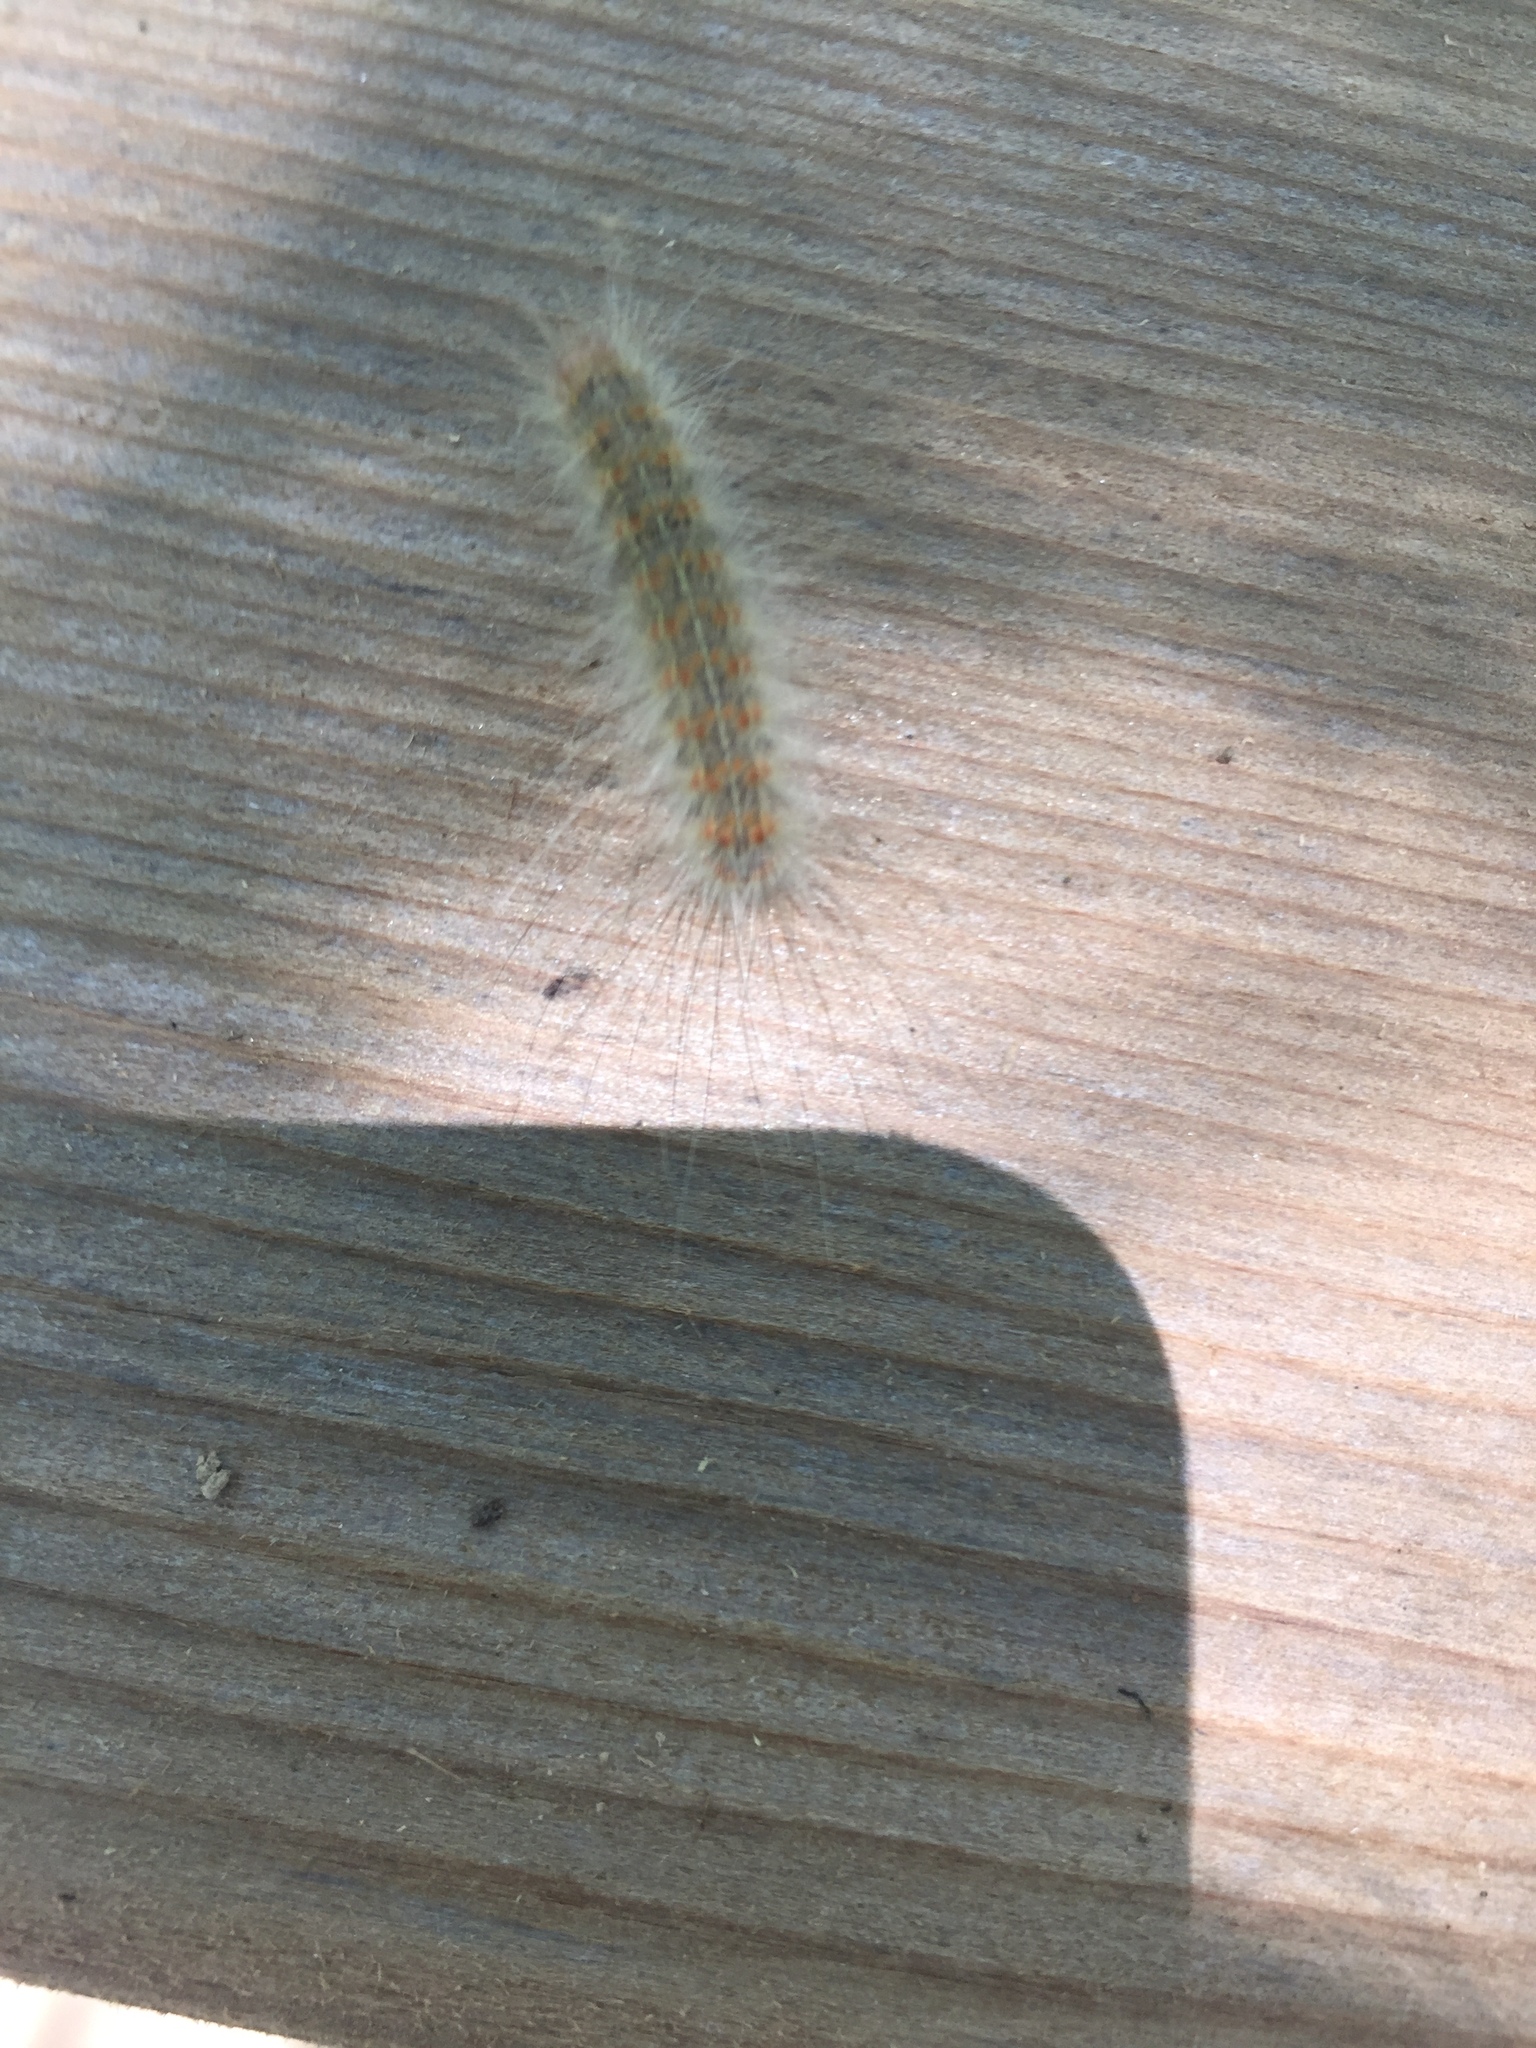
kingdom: Animalia
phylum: Arthropoda
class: Insecta
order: Lepidoptera
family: Erebidae
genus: Hyphantria
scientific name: Hyphantria cunea
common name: American white moth
